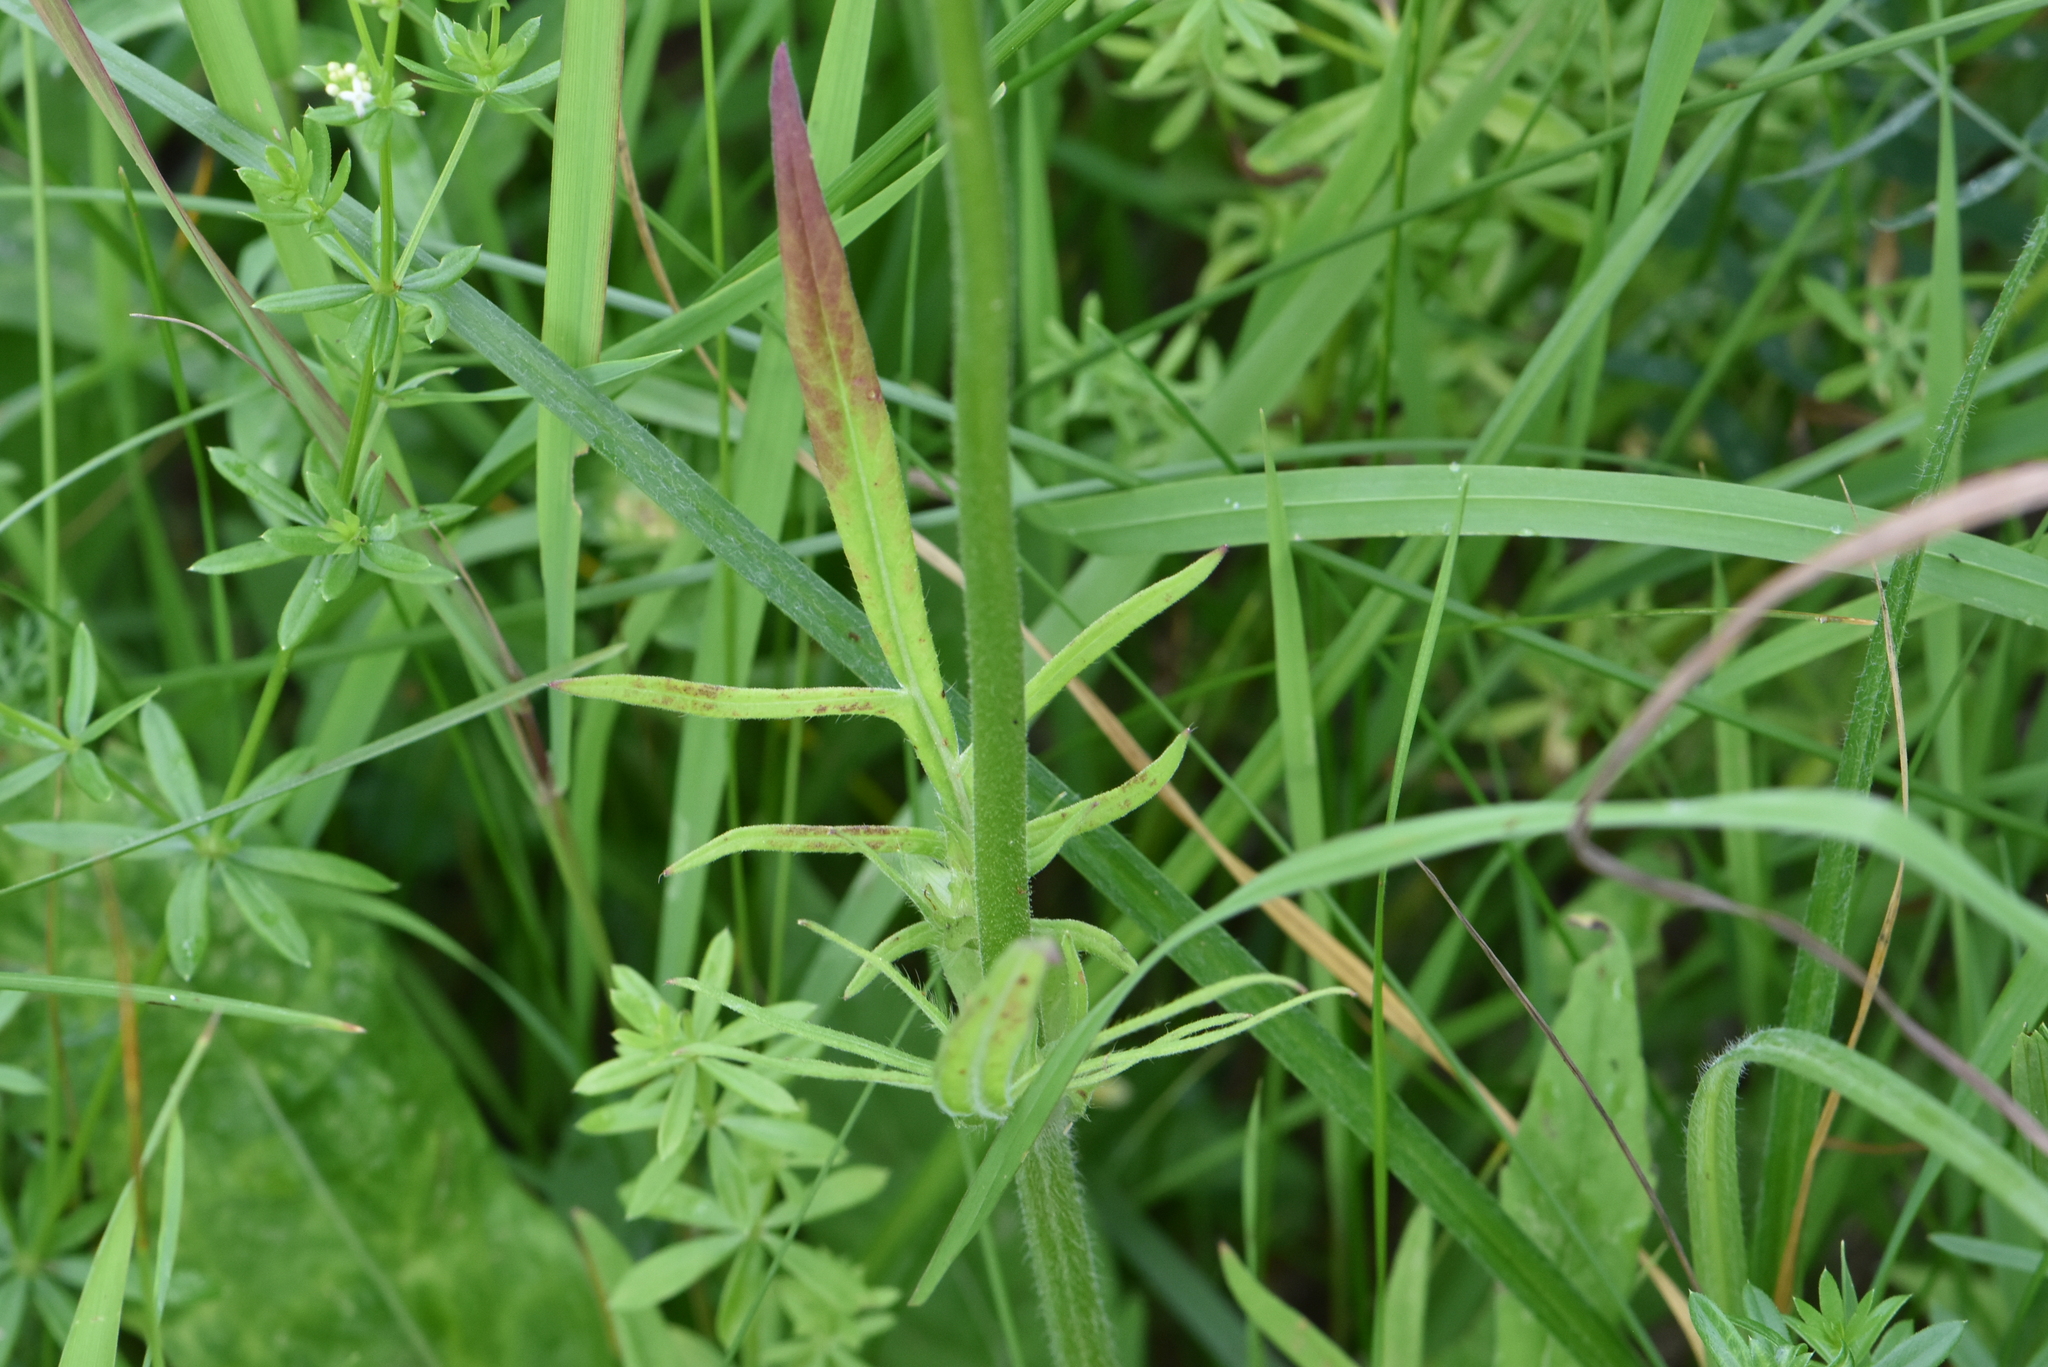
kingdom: Plantae
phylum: Tracheophyta
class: Magnoliopsida
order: Dipsacales
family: Caprifoliaceae
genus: Knautia
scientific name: Knautia arvensis
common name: Field scabiosa
